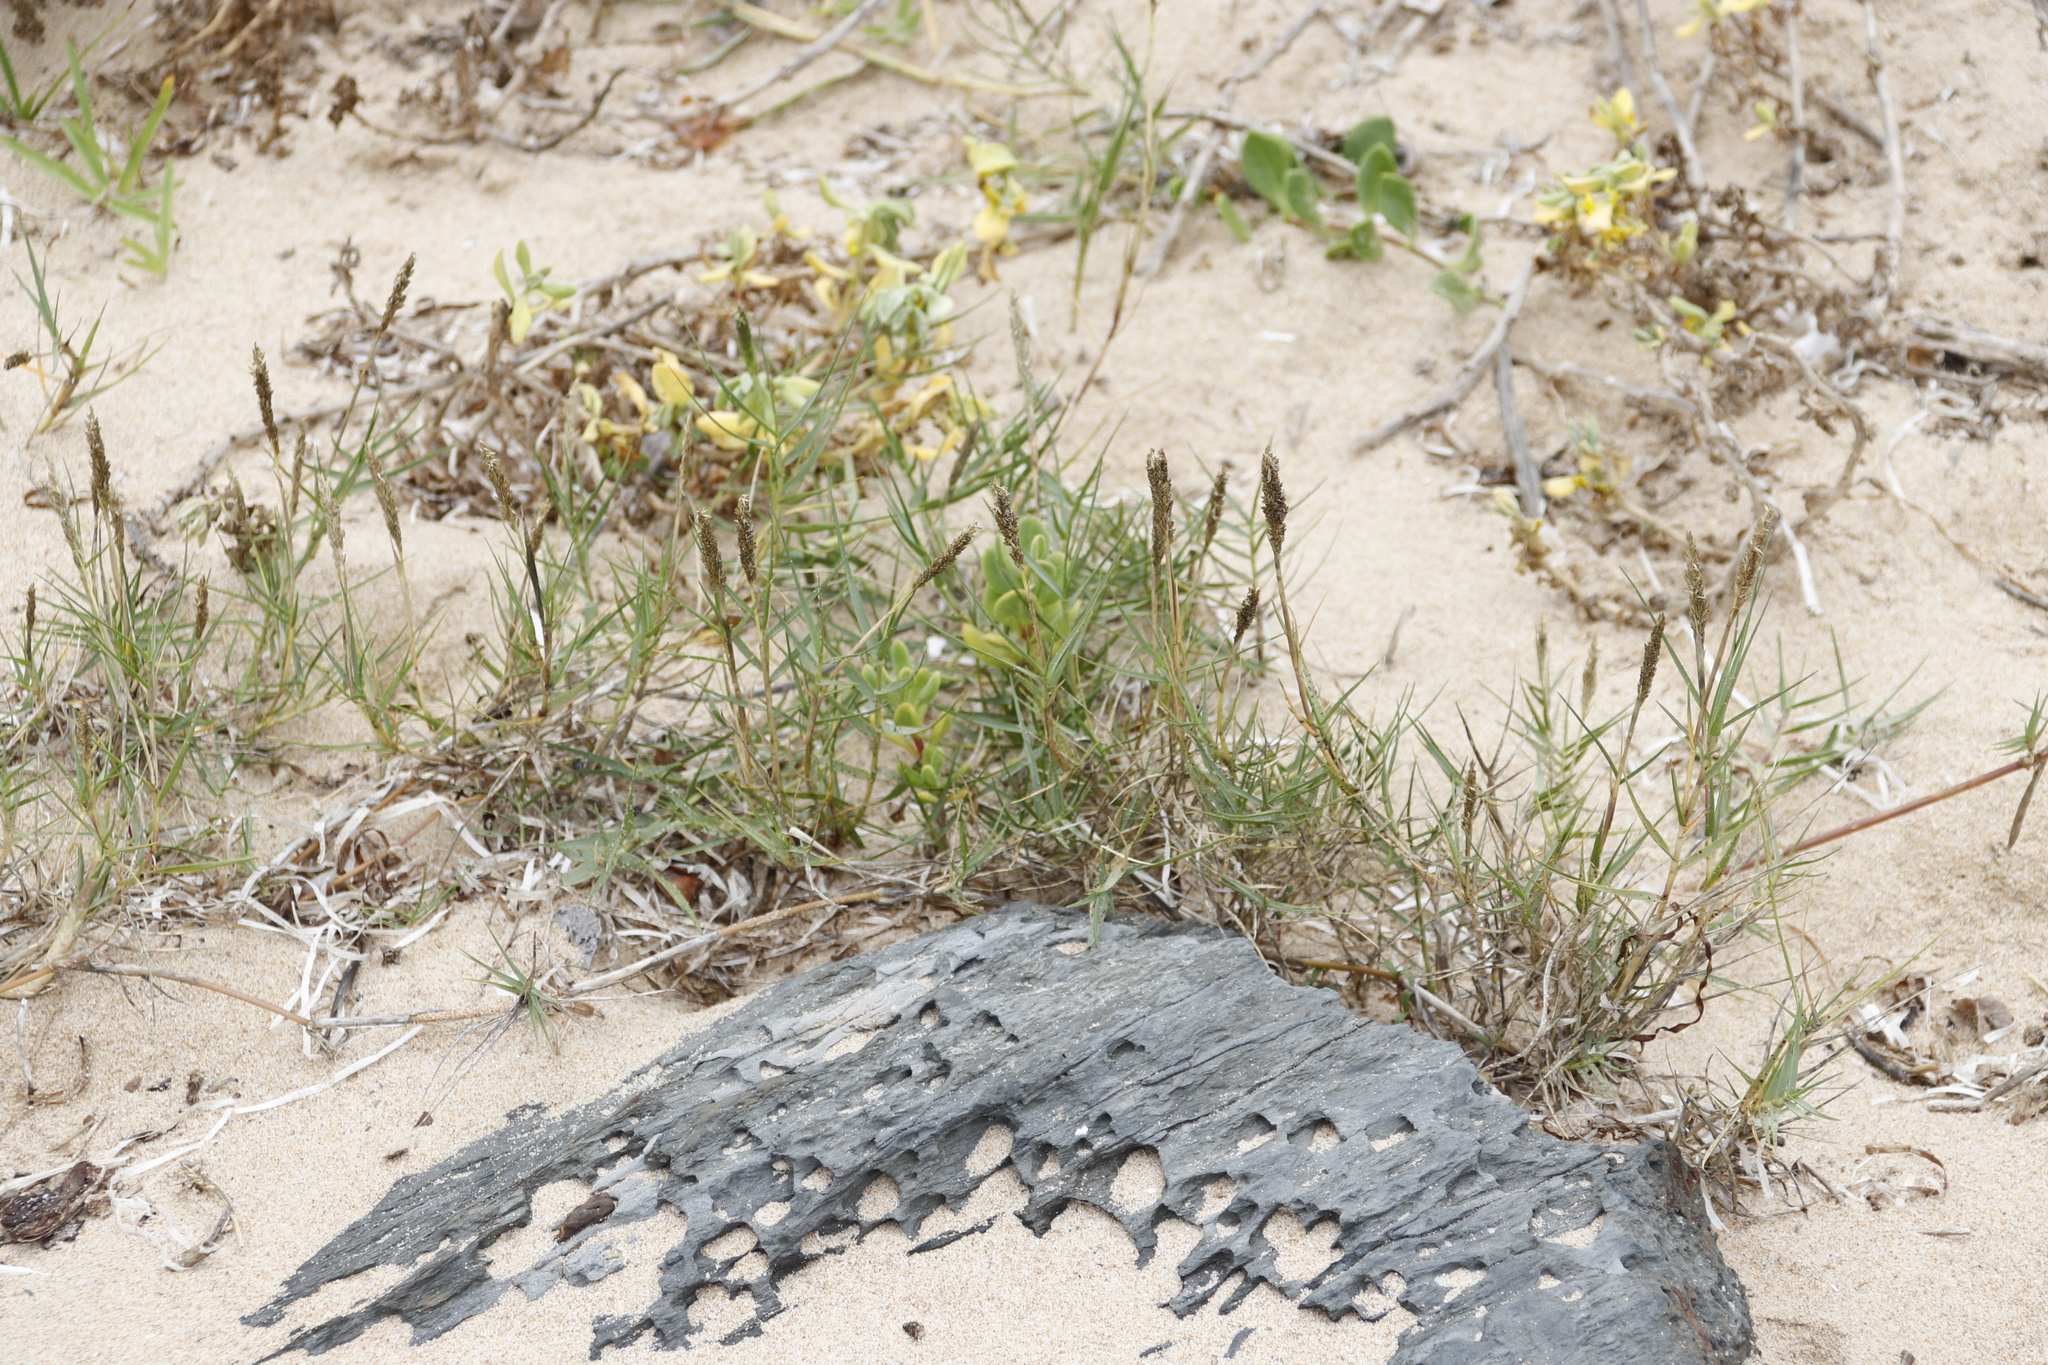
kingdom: Plantae
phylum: Tracheophyta
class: Liliopsida
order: Poales
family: Poaceae
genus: Sporobolus
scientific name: Sporobolus virginicus
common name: Beach dropseed
